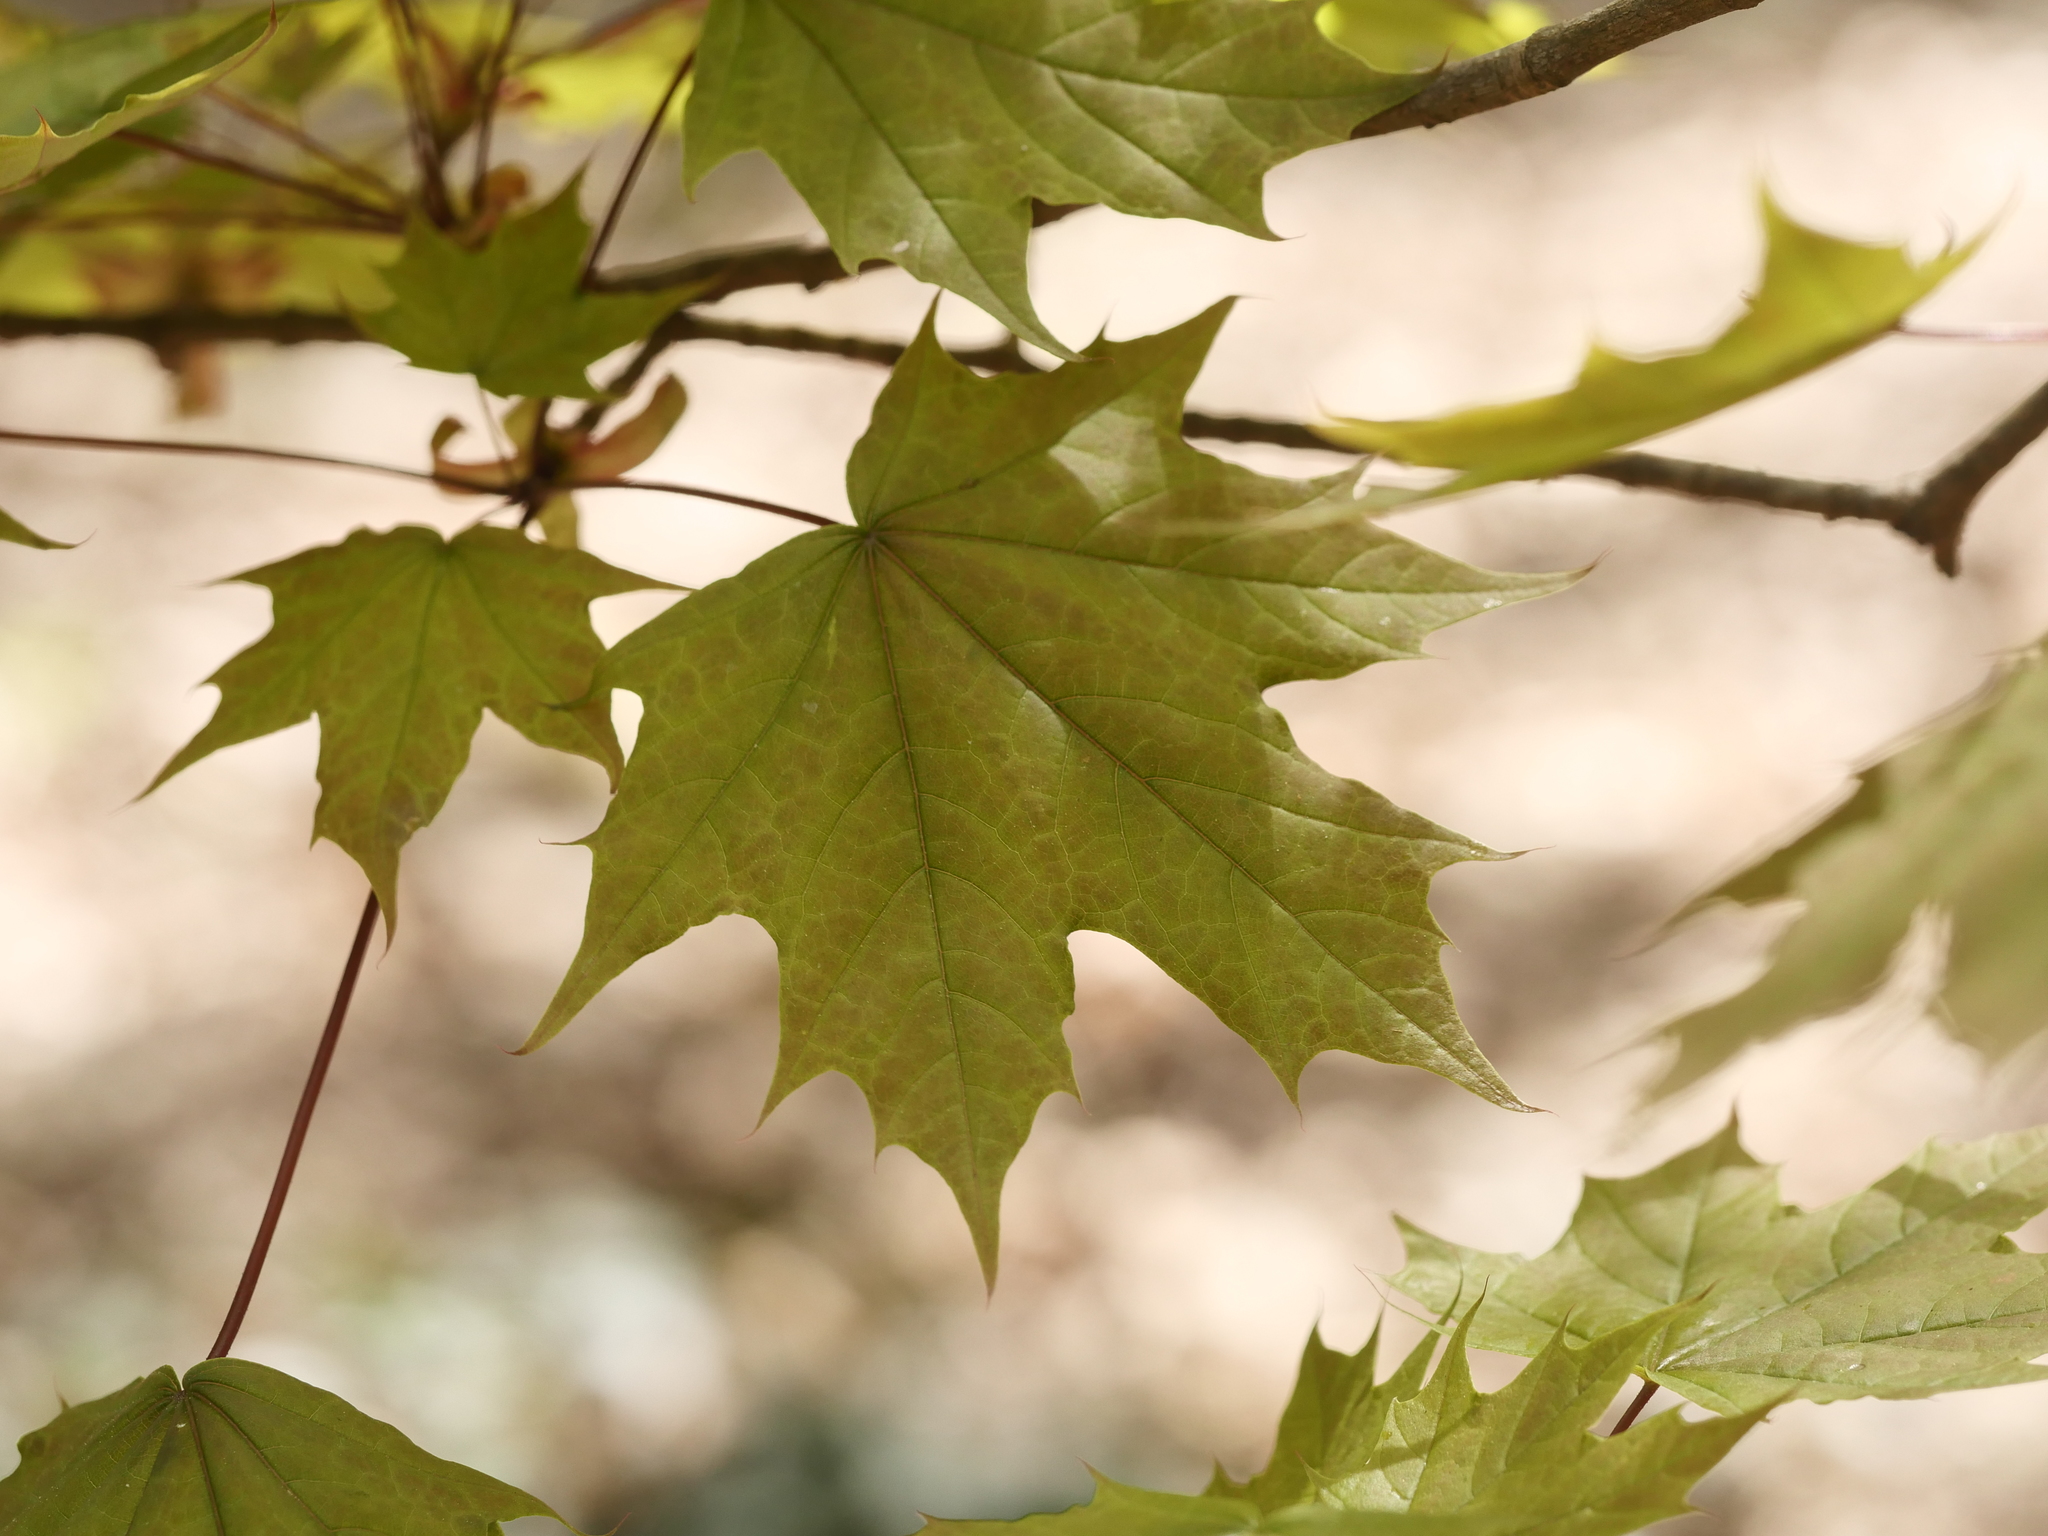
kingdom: Plantae
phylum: Tracheophyta
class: Magnoliopsida
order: Sapindales
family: Sapindaceae
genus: Acer
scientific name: Acer platanoides
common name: Norway maple
